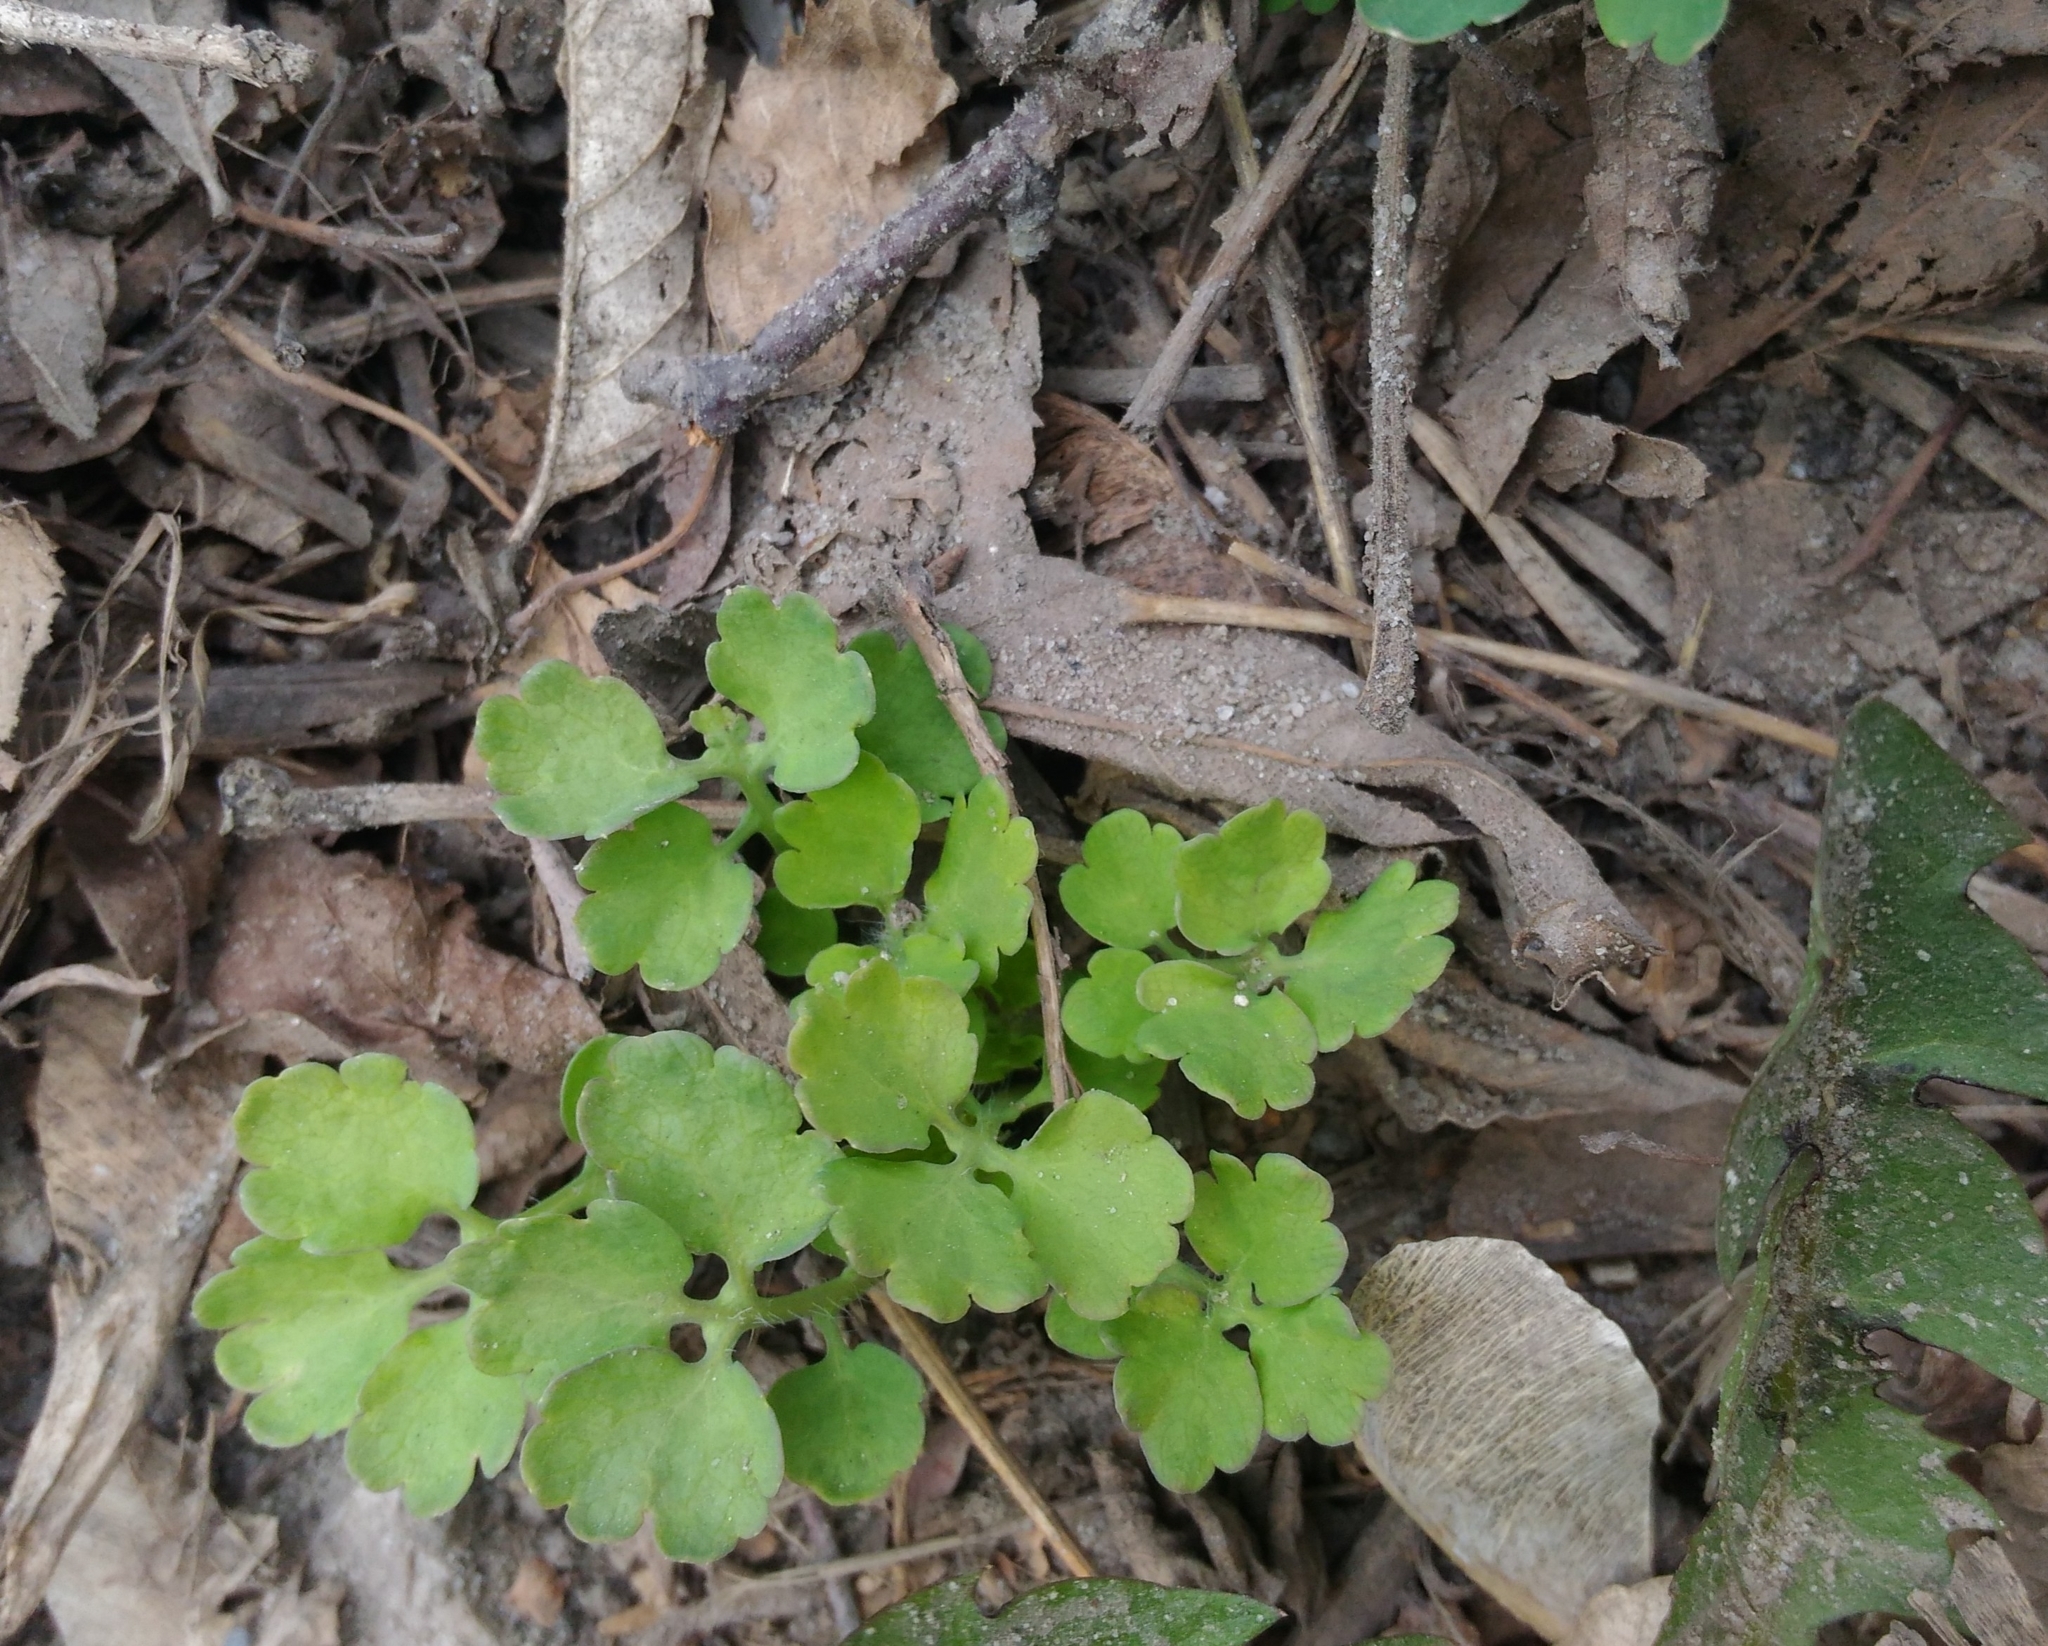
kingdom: Plantae
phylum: Tracheophyta
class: Magnoliopsida
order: Ranunculales
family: Papaveraceae
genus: Chelidonium
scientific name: Chelidonium majus
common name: Greater celandine
